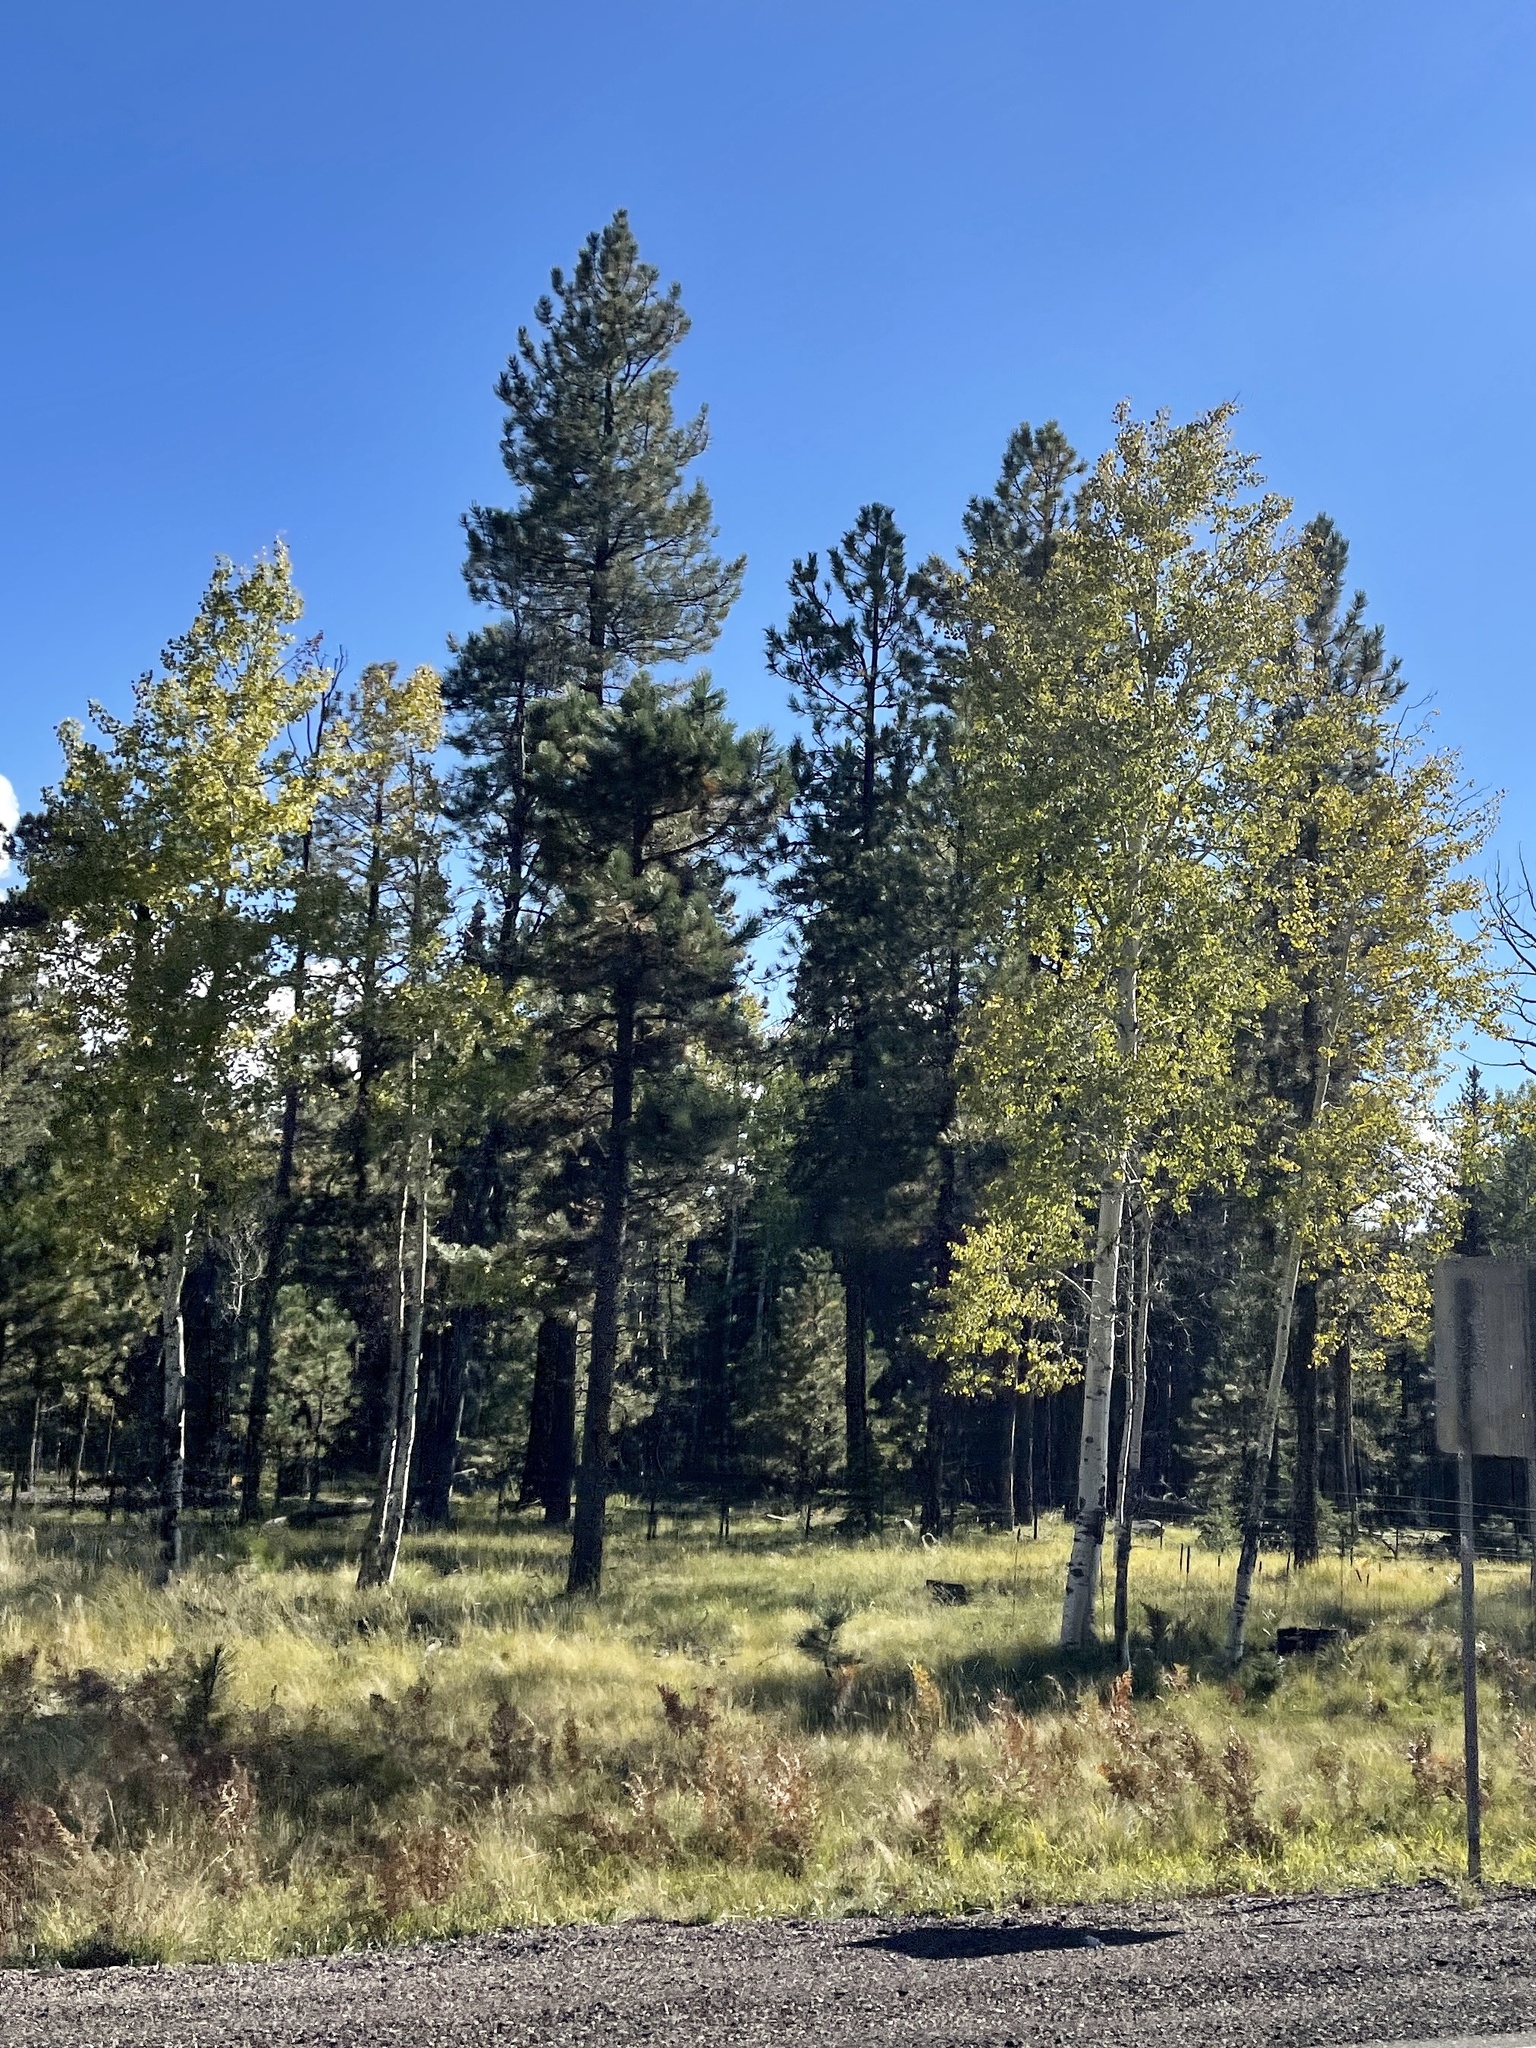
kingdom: Plantae
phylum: Tracheophyta
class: Magnoliopsida
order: Malpighiales
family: Salicaceae
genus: Populus
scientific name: Populus tremuloides
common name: Quaking aspen
